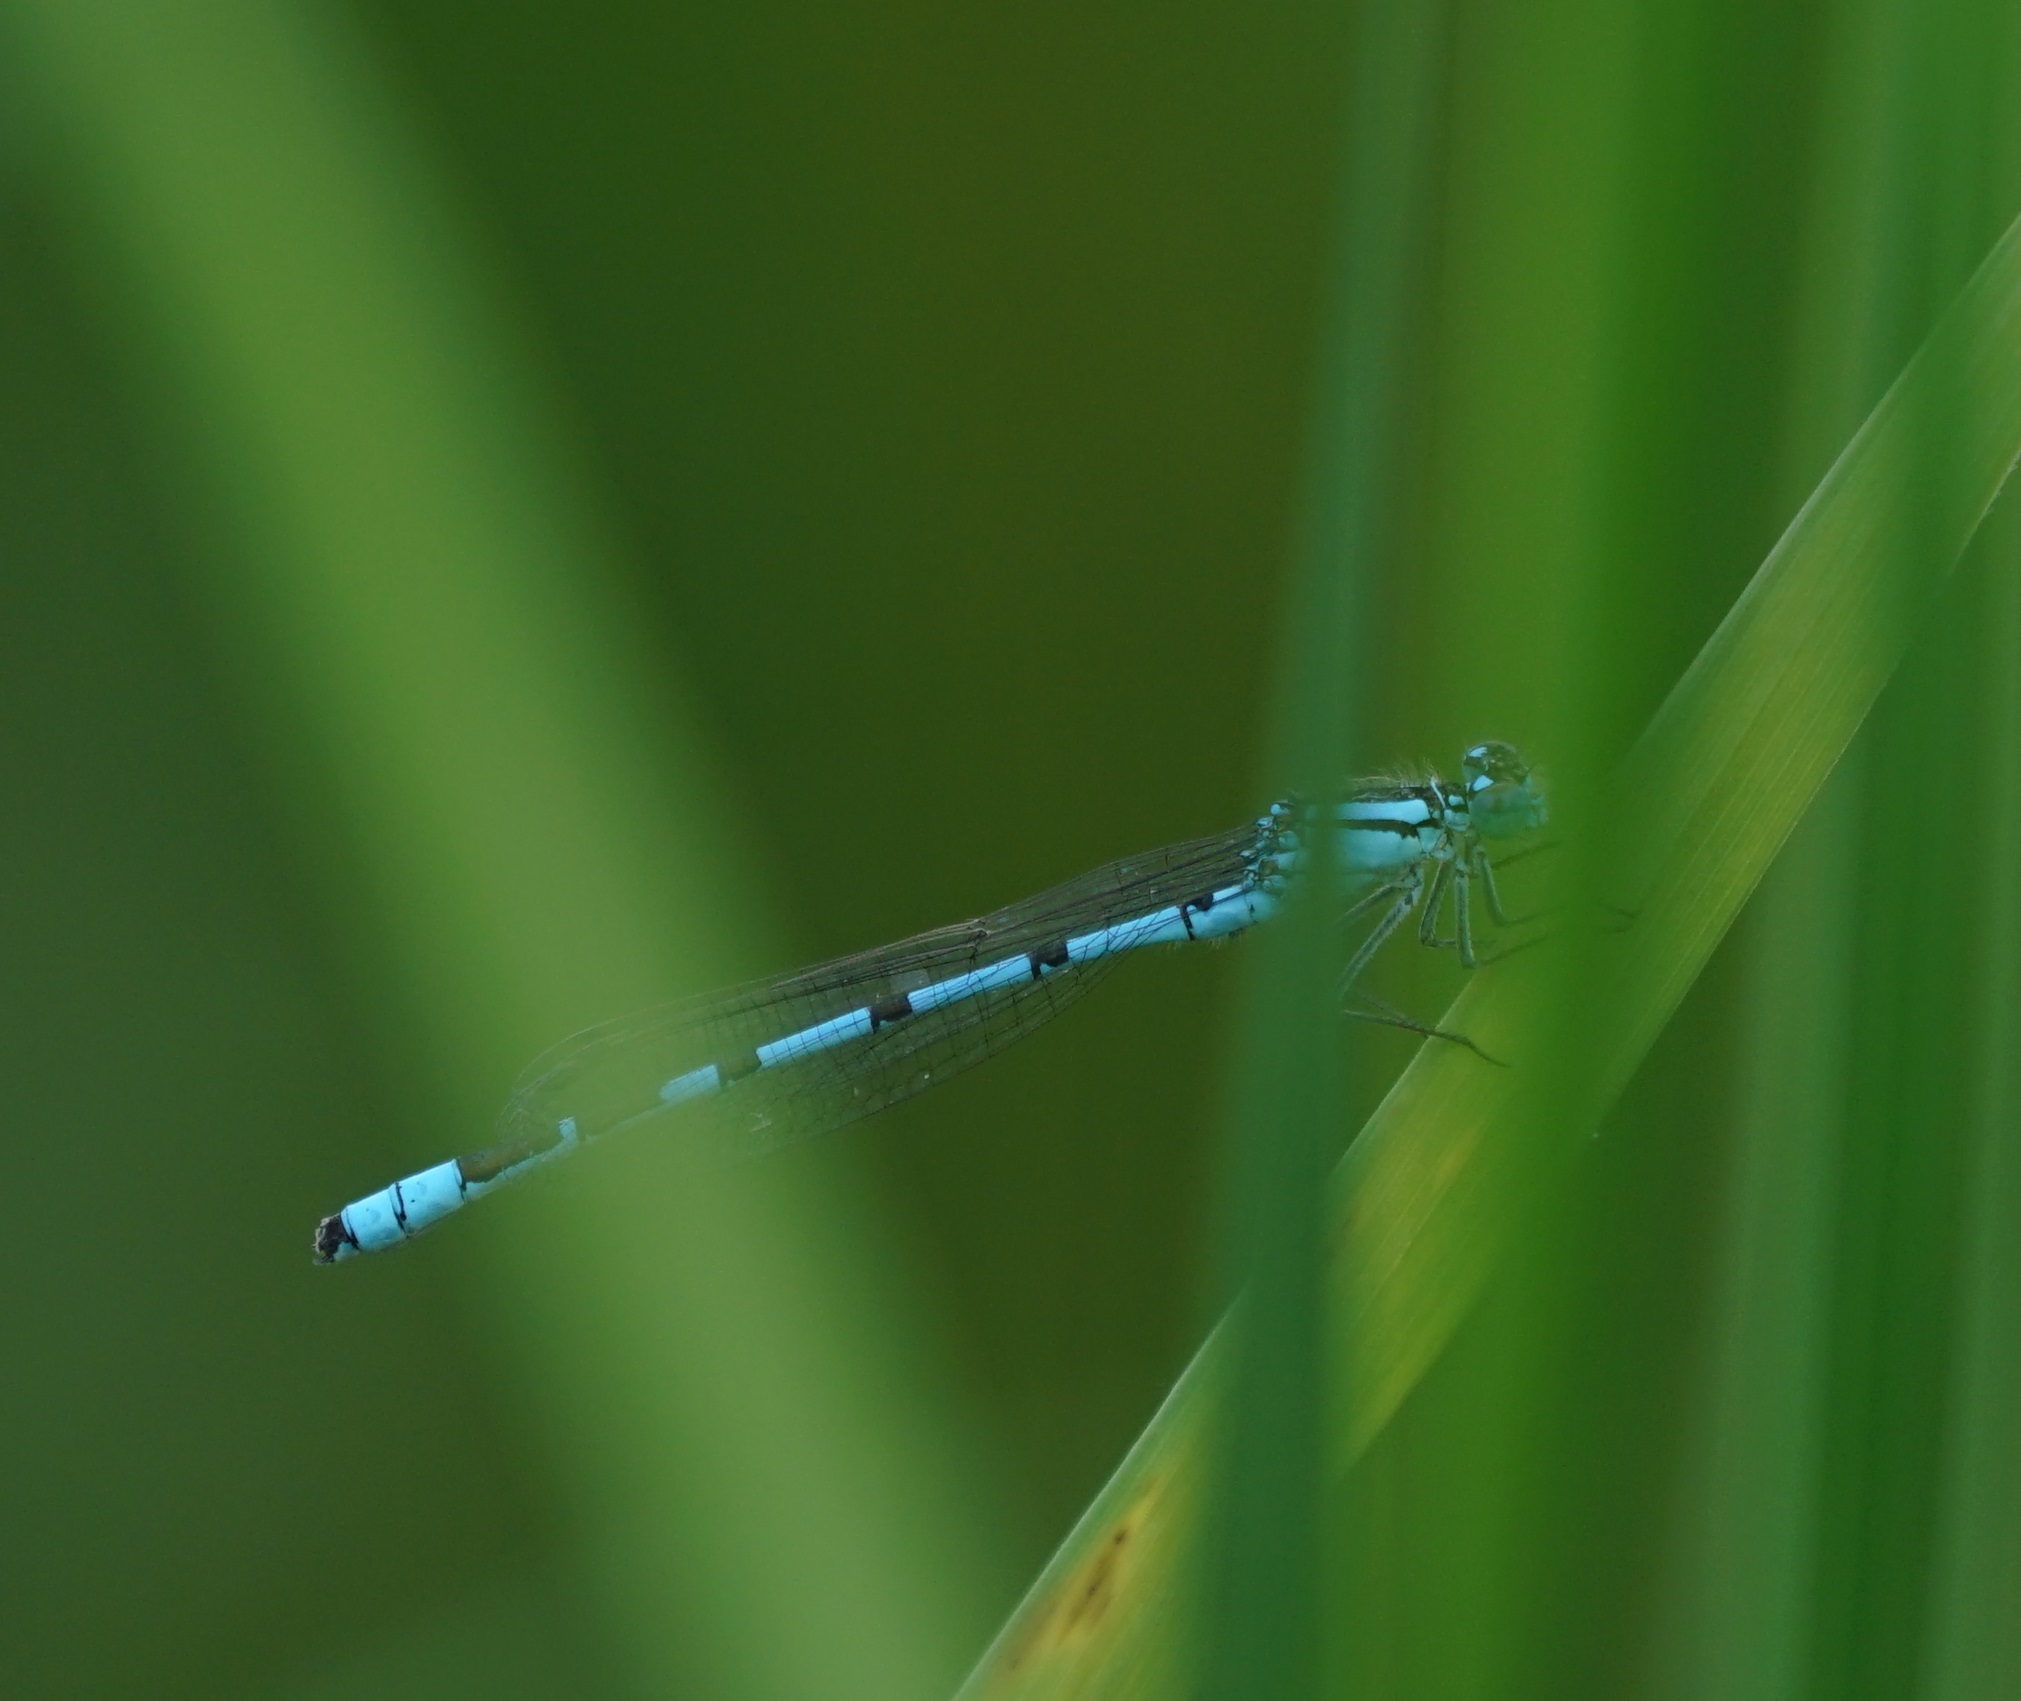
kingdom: Animalia
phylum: Arthropoda
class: Insecta
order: Odonata
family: Coenagrionidae
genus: Enallagma
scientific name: Enallagma cyathigerum
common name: Common blue damselfly
